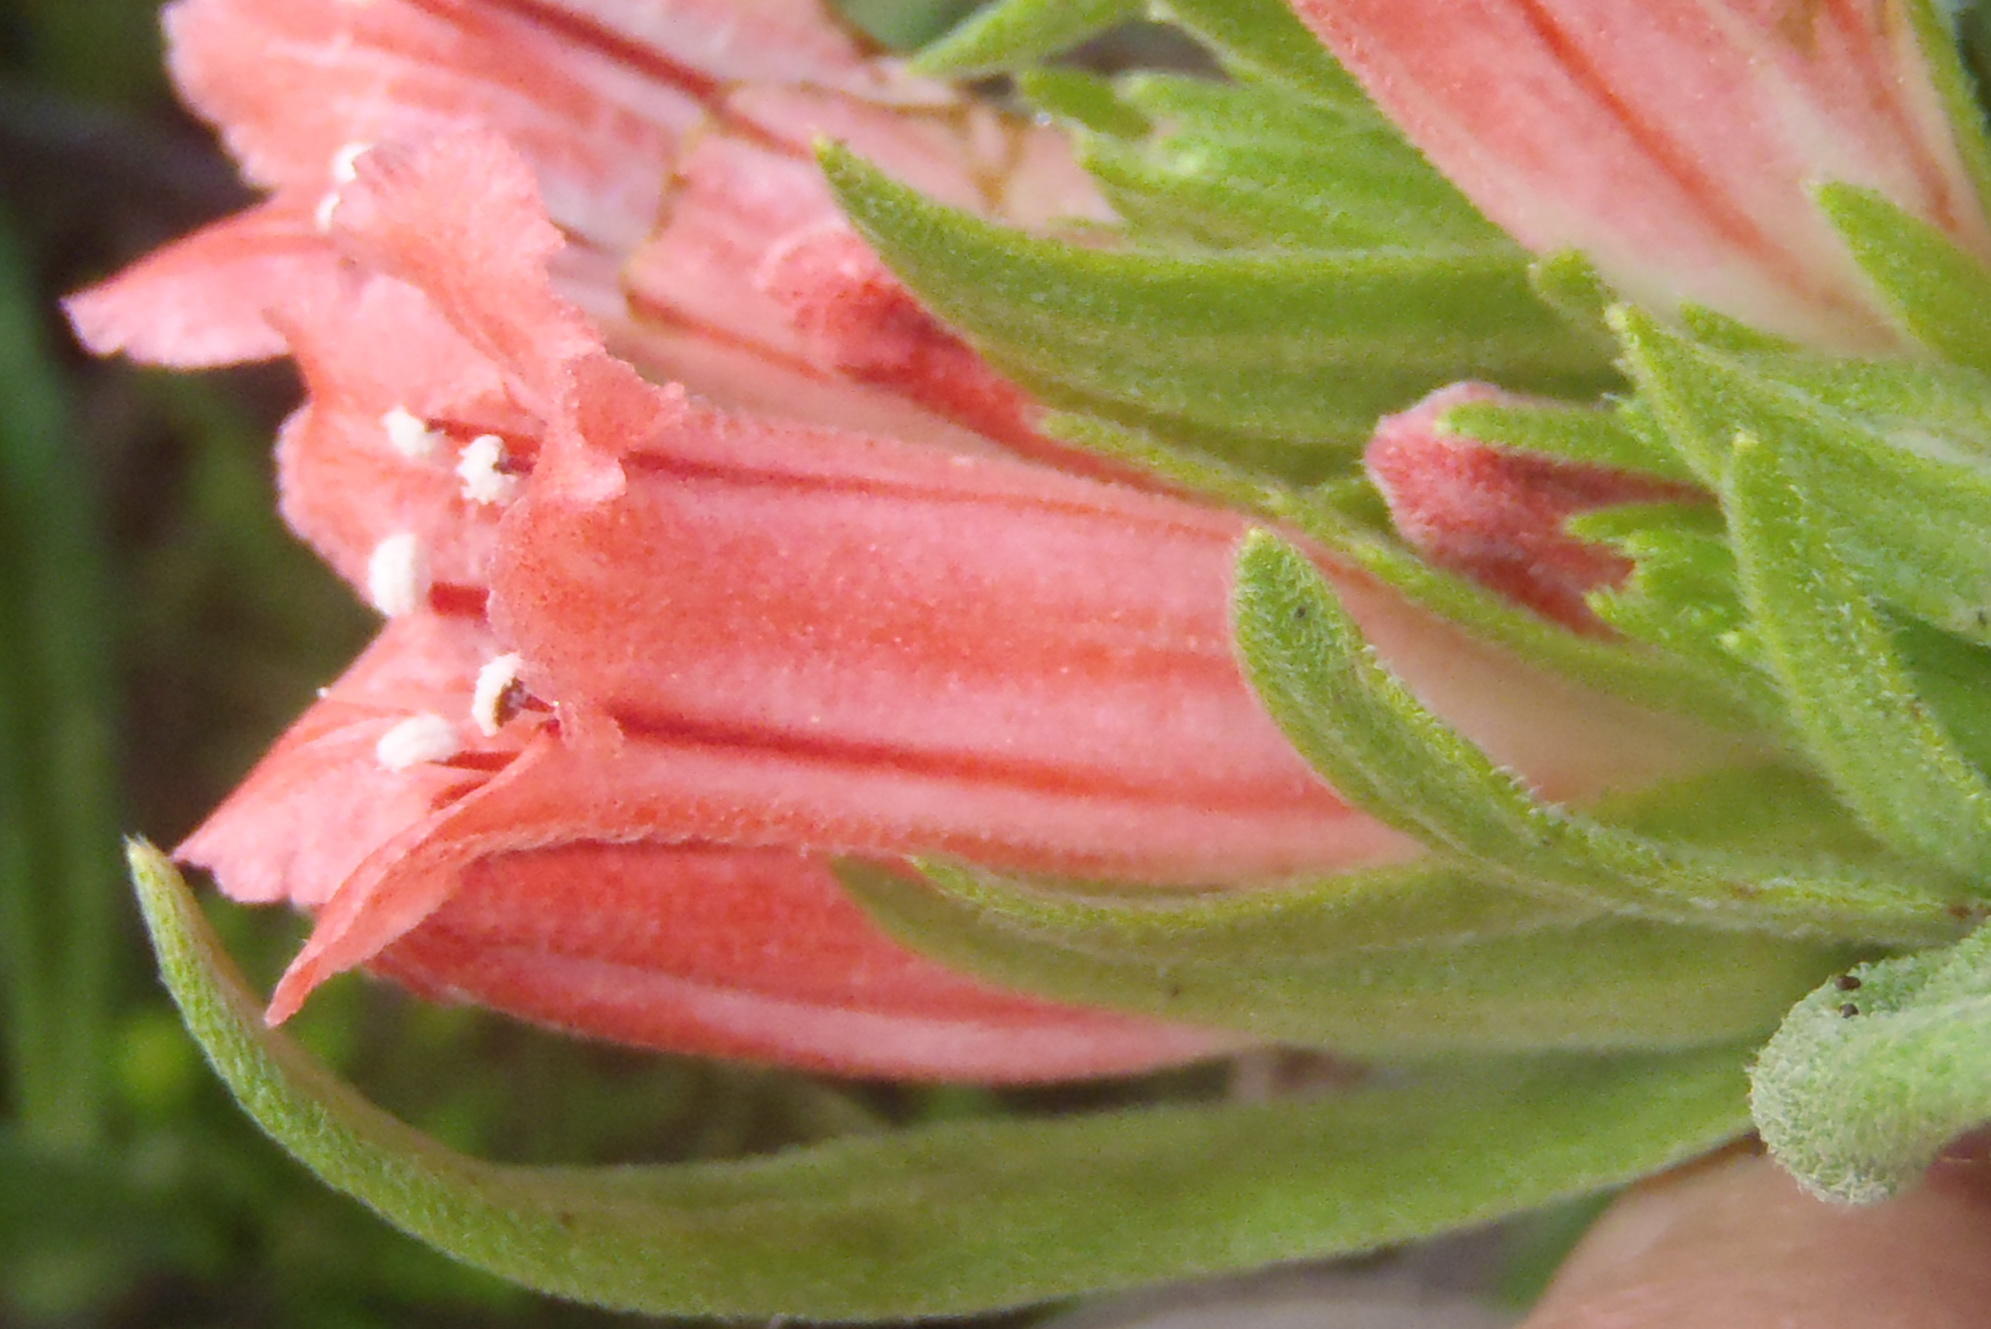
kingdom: Plantae
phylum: Tracheophyta
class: Magnoliopsida
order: Boraginales
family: Boraginaceae
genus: Lobostemon
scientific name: Lobostemon belliformis
